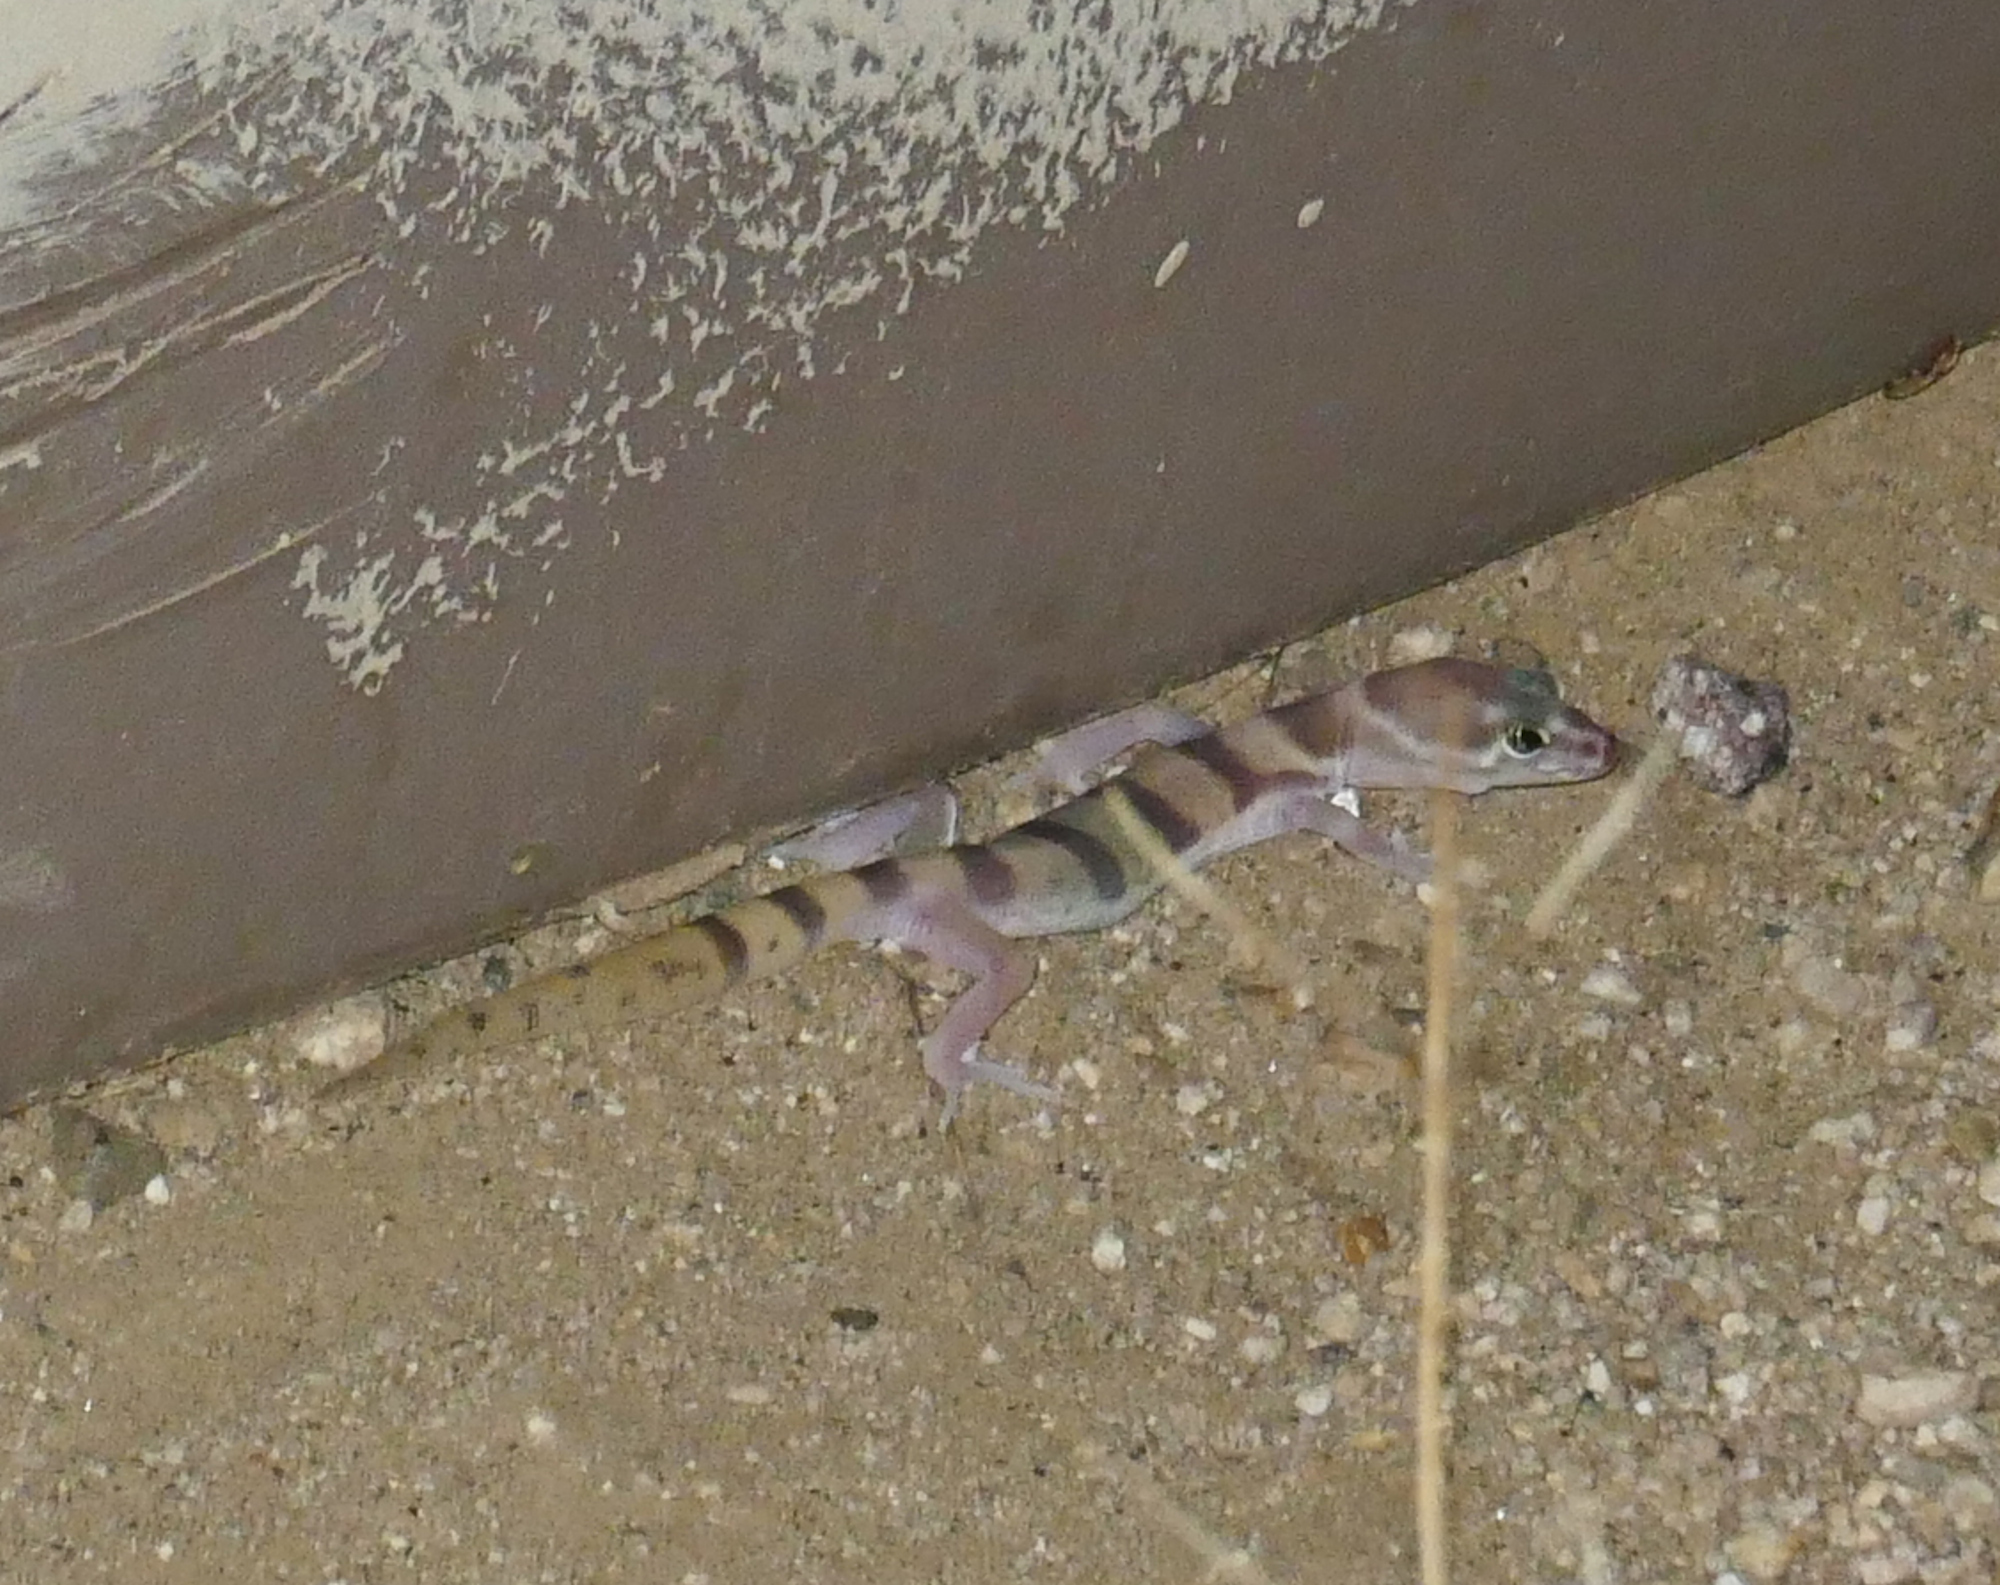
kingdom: Animalia
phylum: Chordata
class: Squamata
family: Eublepharidae
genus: Coleonyx
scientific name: Coleonyx variegatus
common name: Western banded gecko
